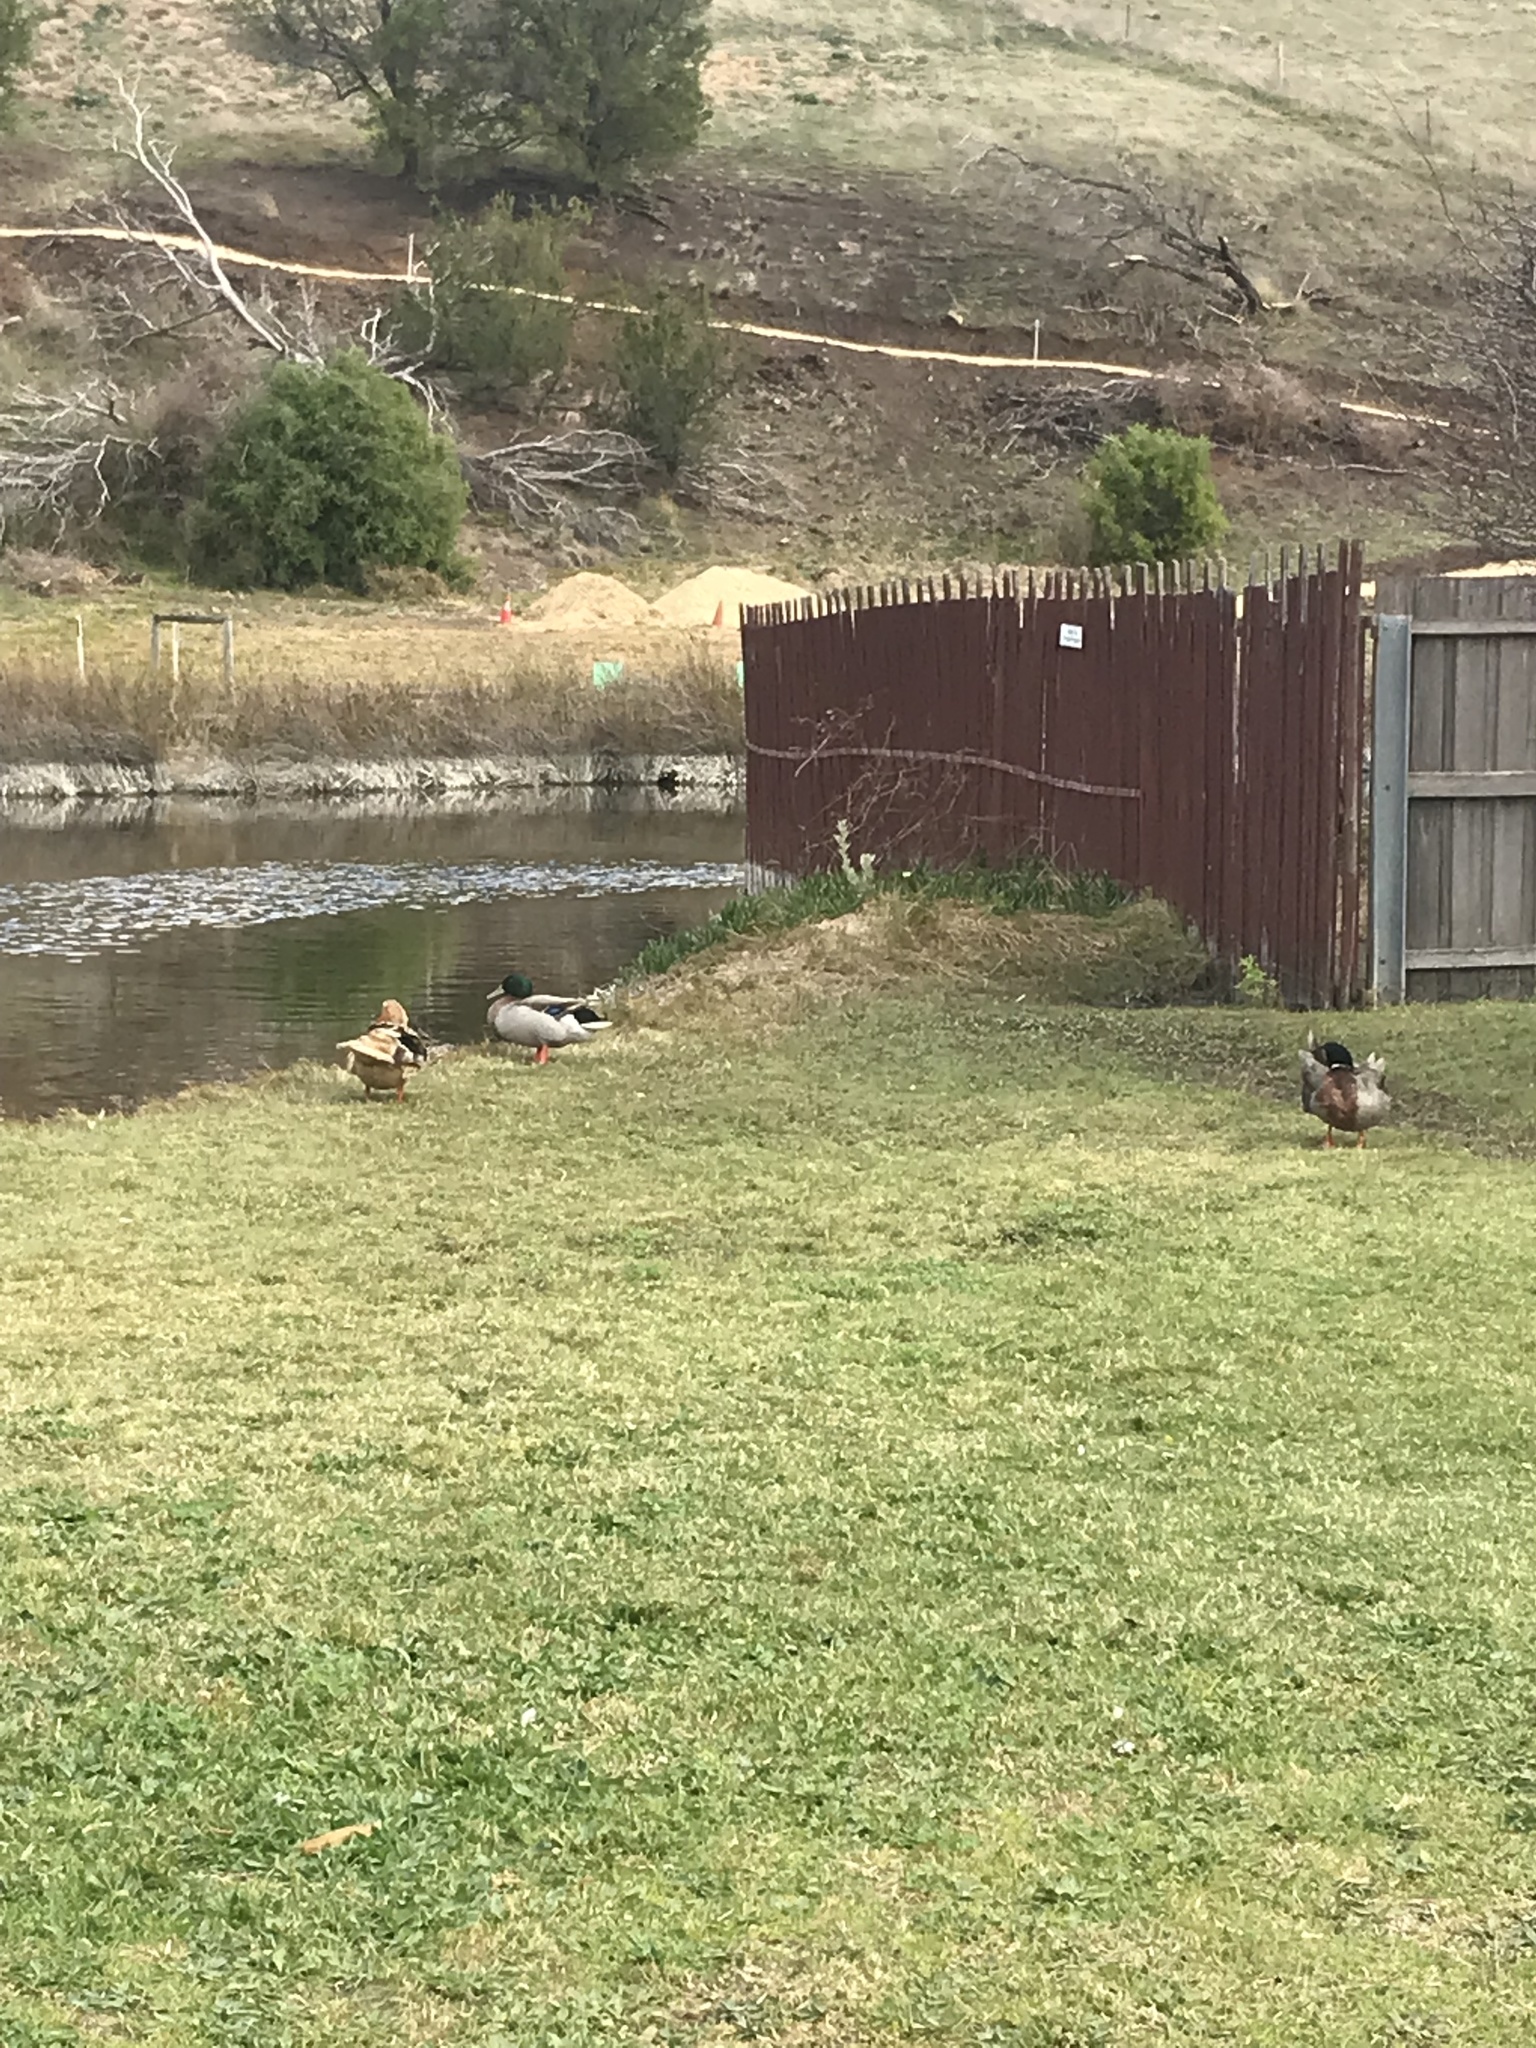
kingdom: Animalia
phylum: Chordata
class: Aves
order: Anseriformes
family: Anatidae
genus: Anas
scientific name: Anas platyrhynchos
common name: Mallard
